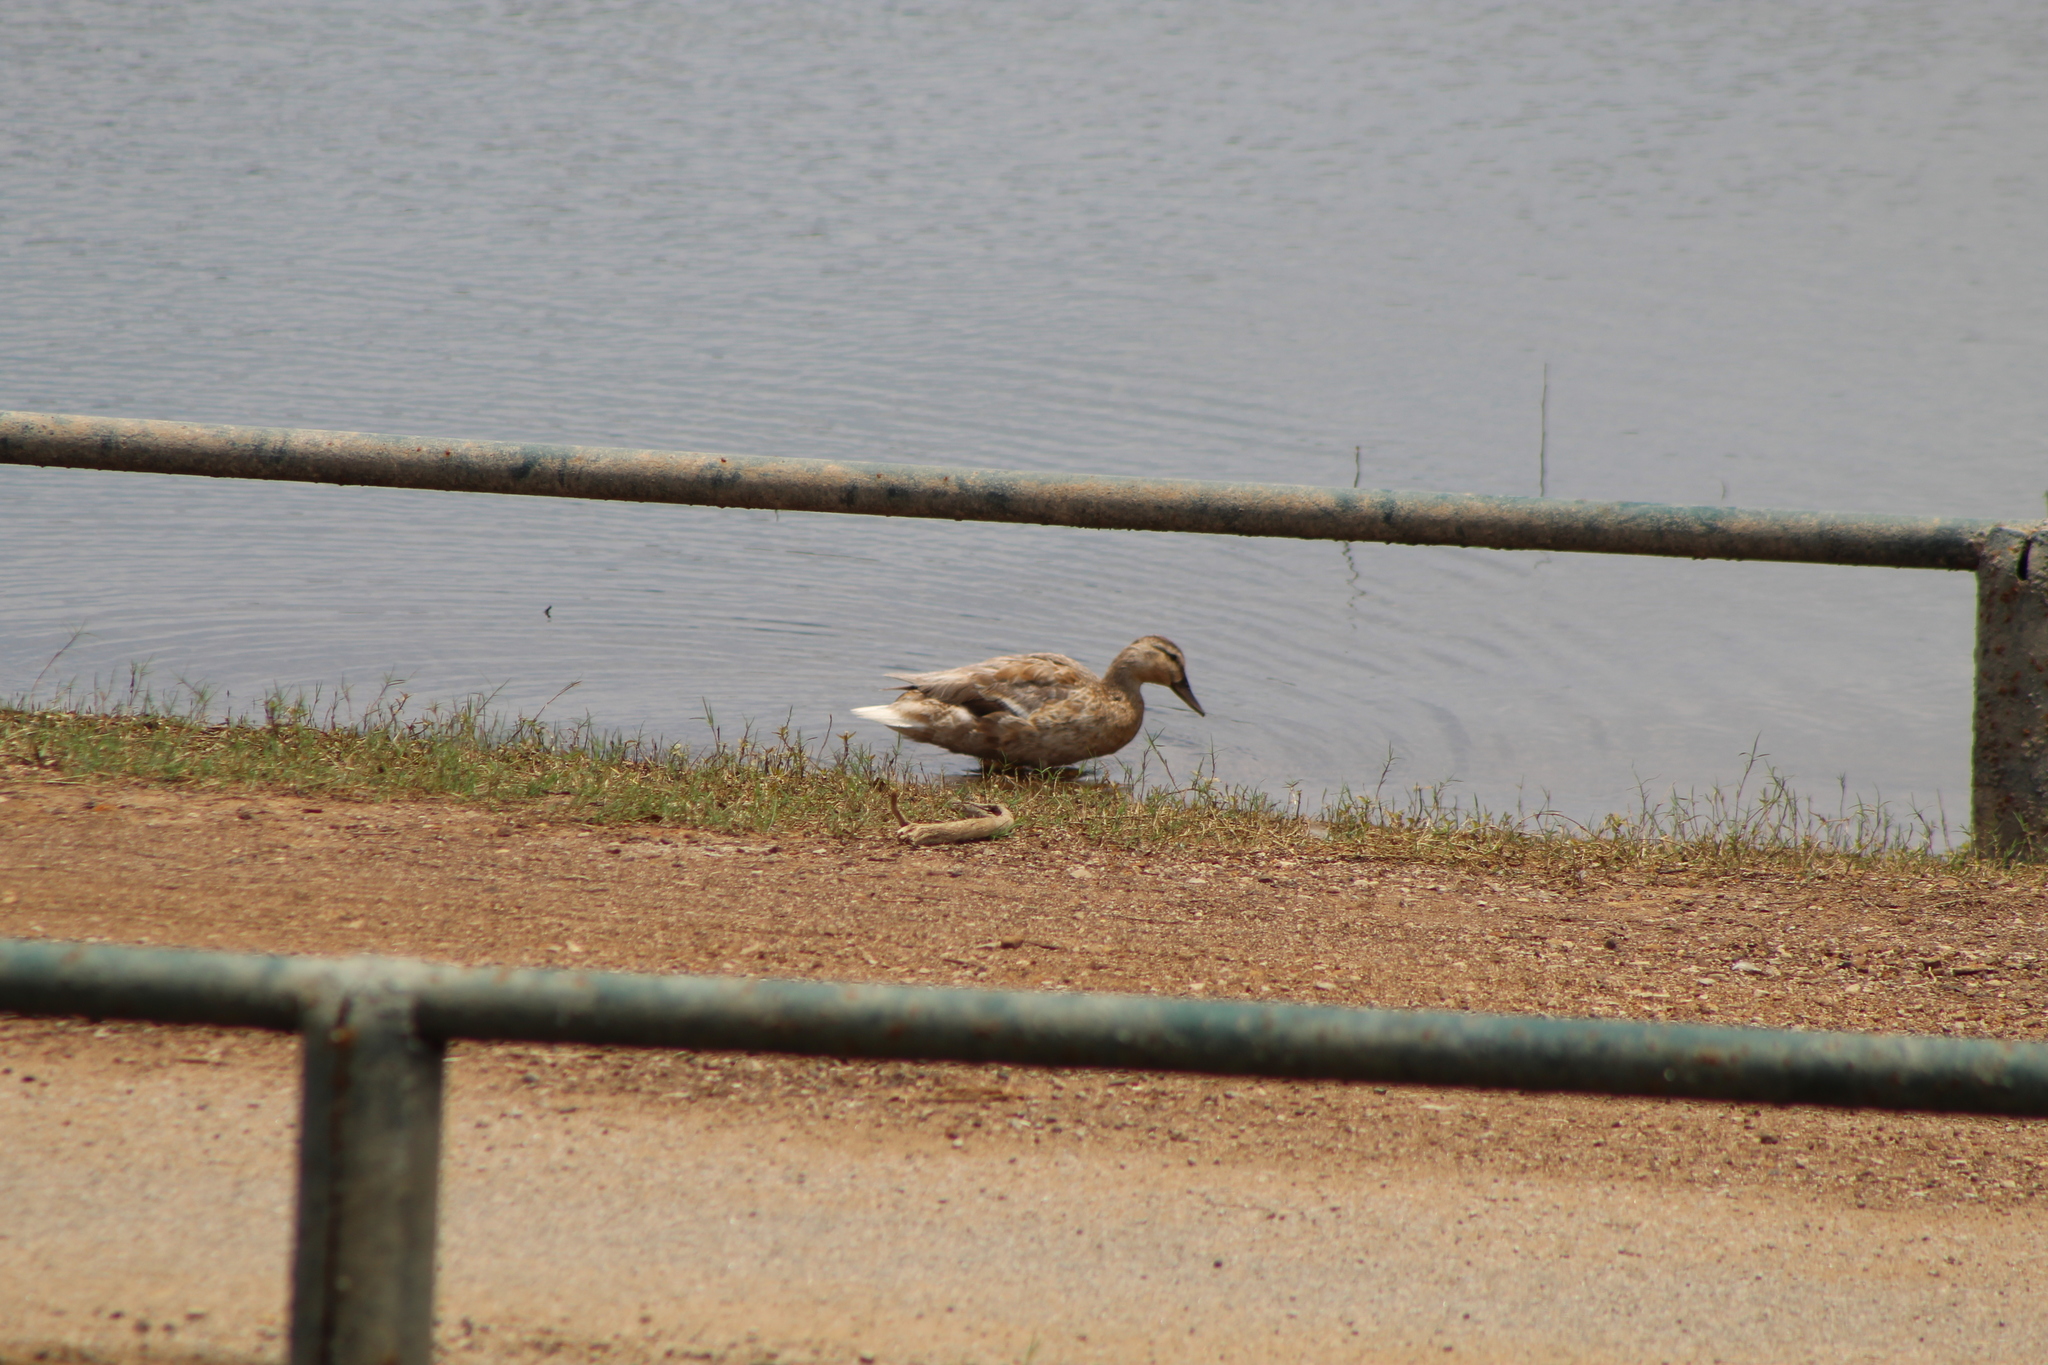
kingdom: Animalia
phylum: Chordata
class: Aves
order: Anseriformes
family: Anatidae
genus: Anas
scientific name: Anas platyrhynchos
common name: Mallard
